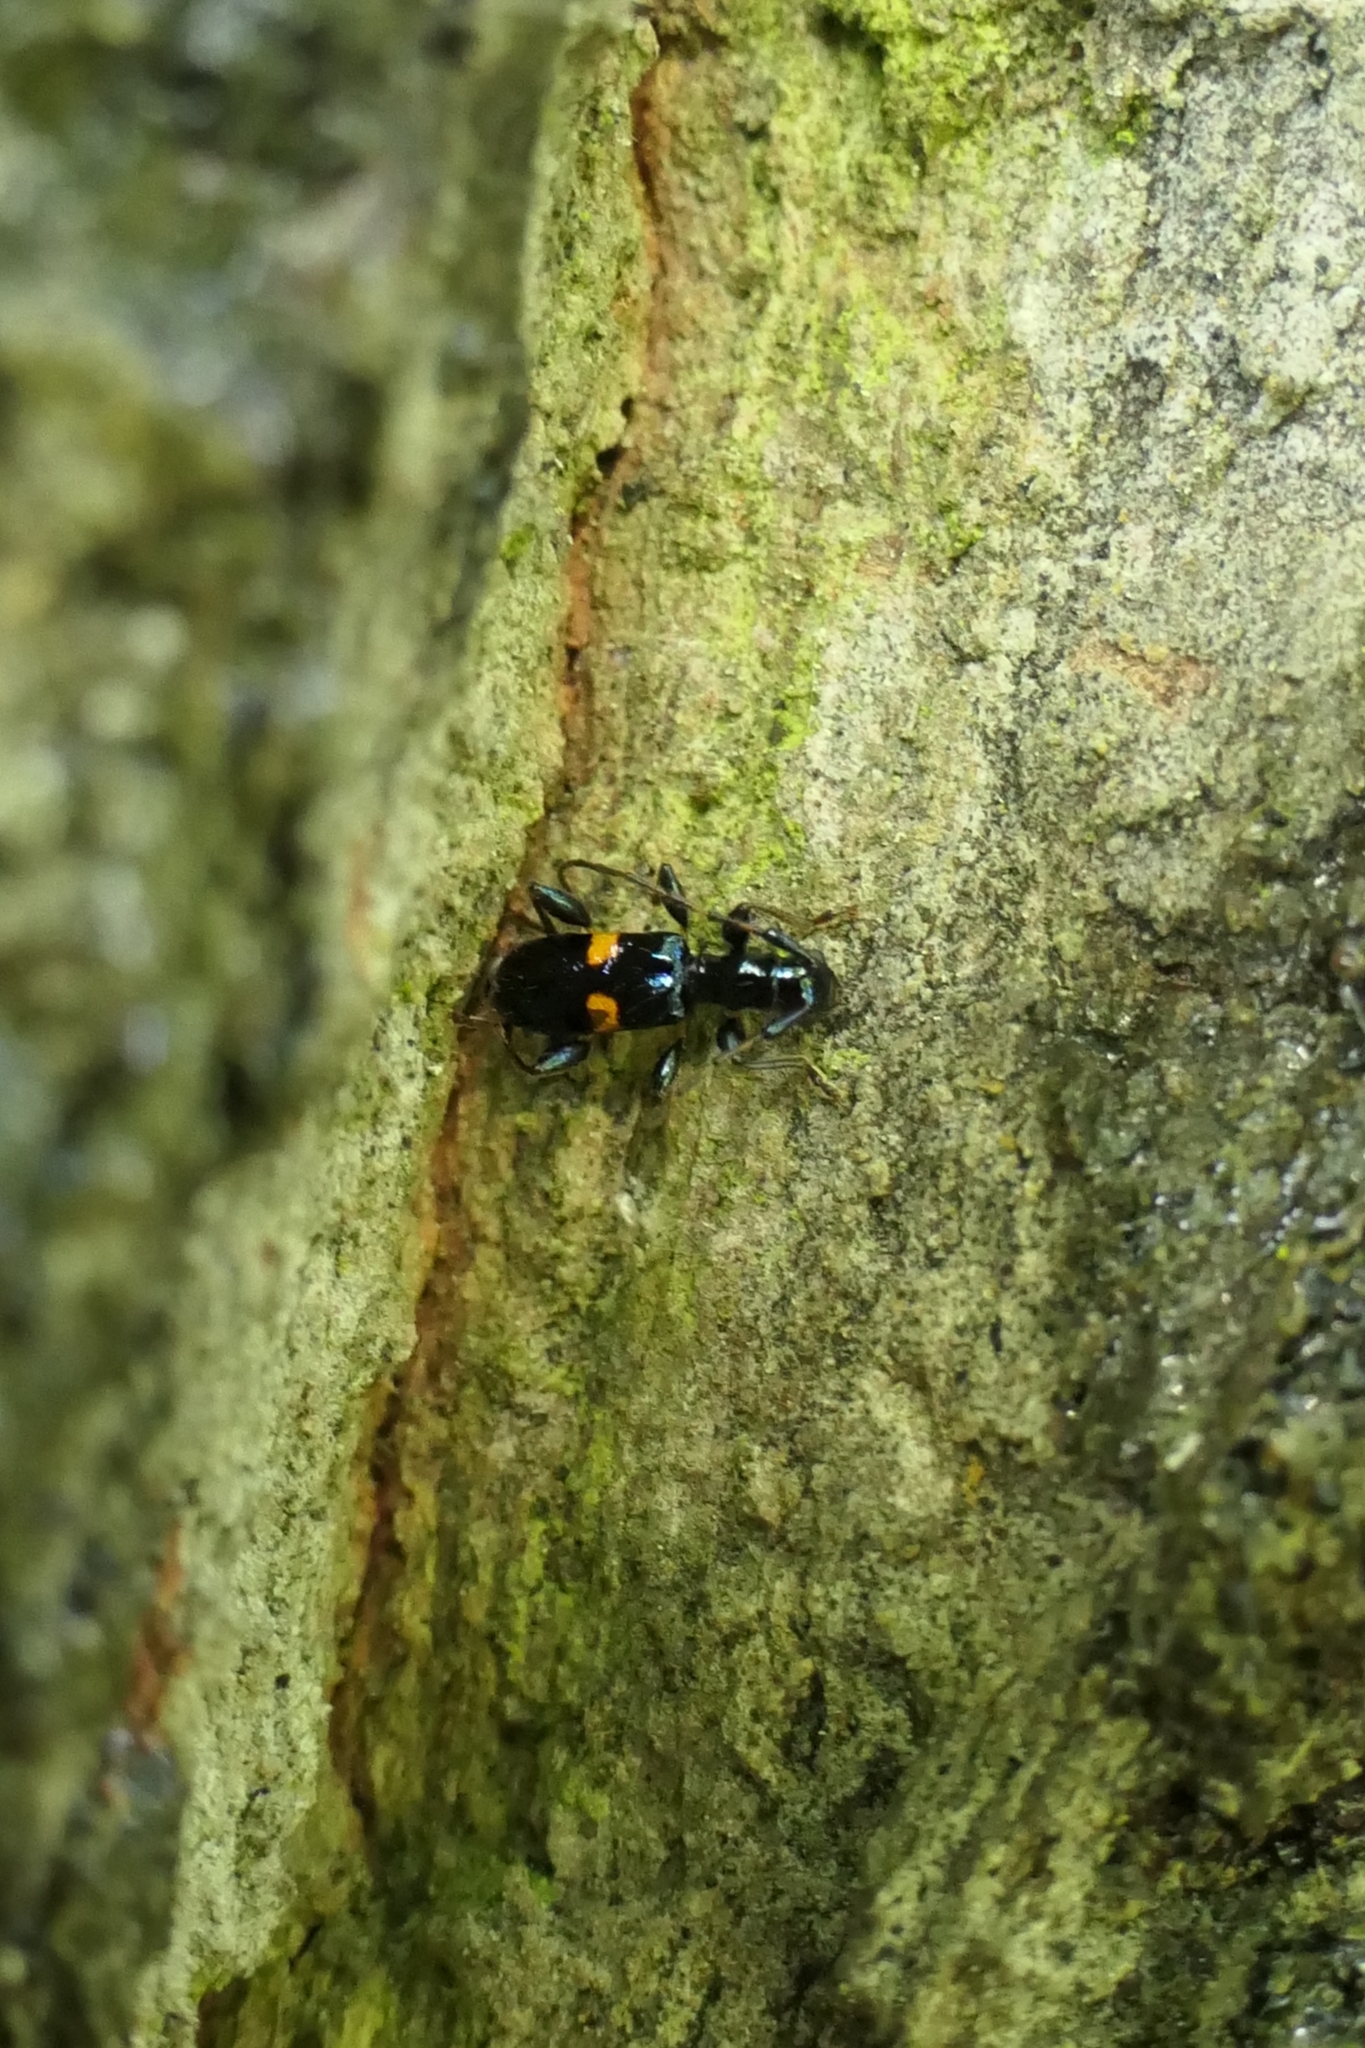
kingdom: Animalia
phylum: Arthropoda
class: Insecta
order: Coleoptera
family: Cerambycidae
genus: Zorion
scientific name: Zorion guttigerum
